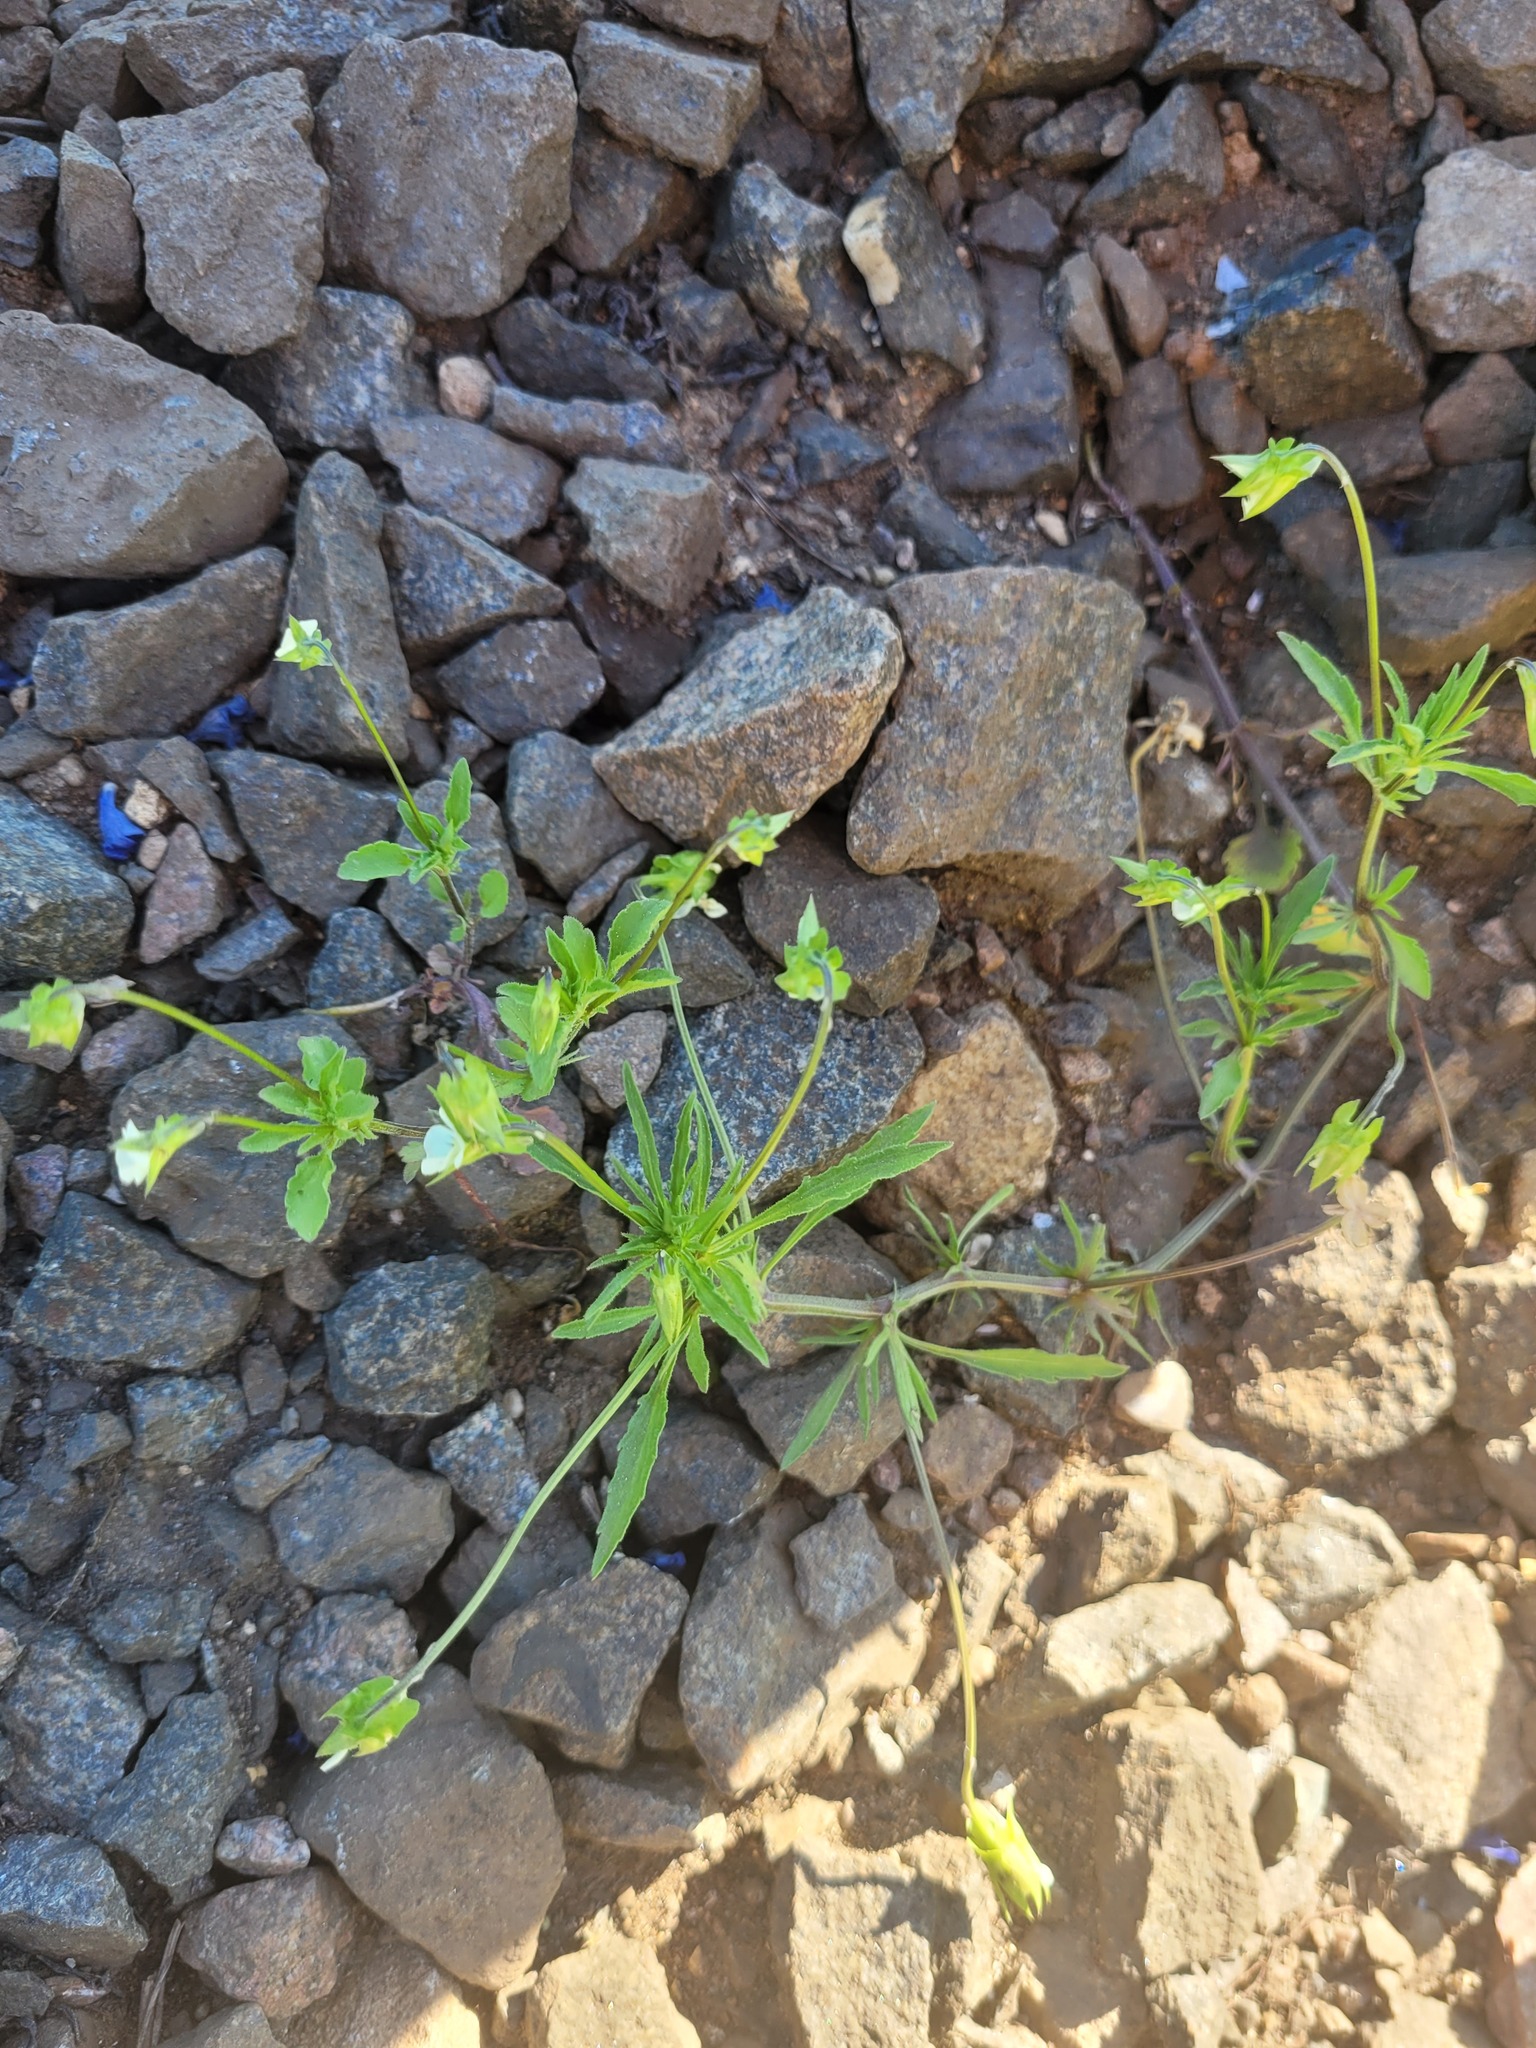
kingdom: Plantae
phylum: Tracheophyta
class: Magnoliopsida
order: Malpighiales
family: Violaceae
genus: Viola
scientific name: Viola arvensis
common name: Field pansy
